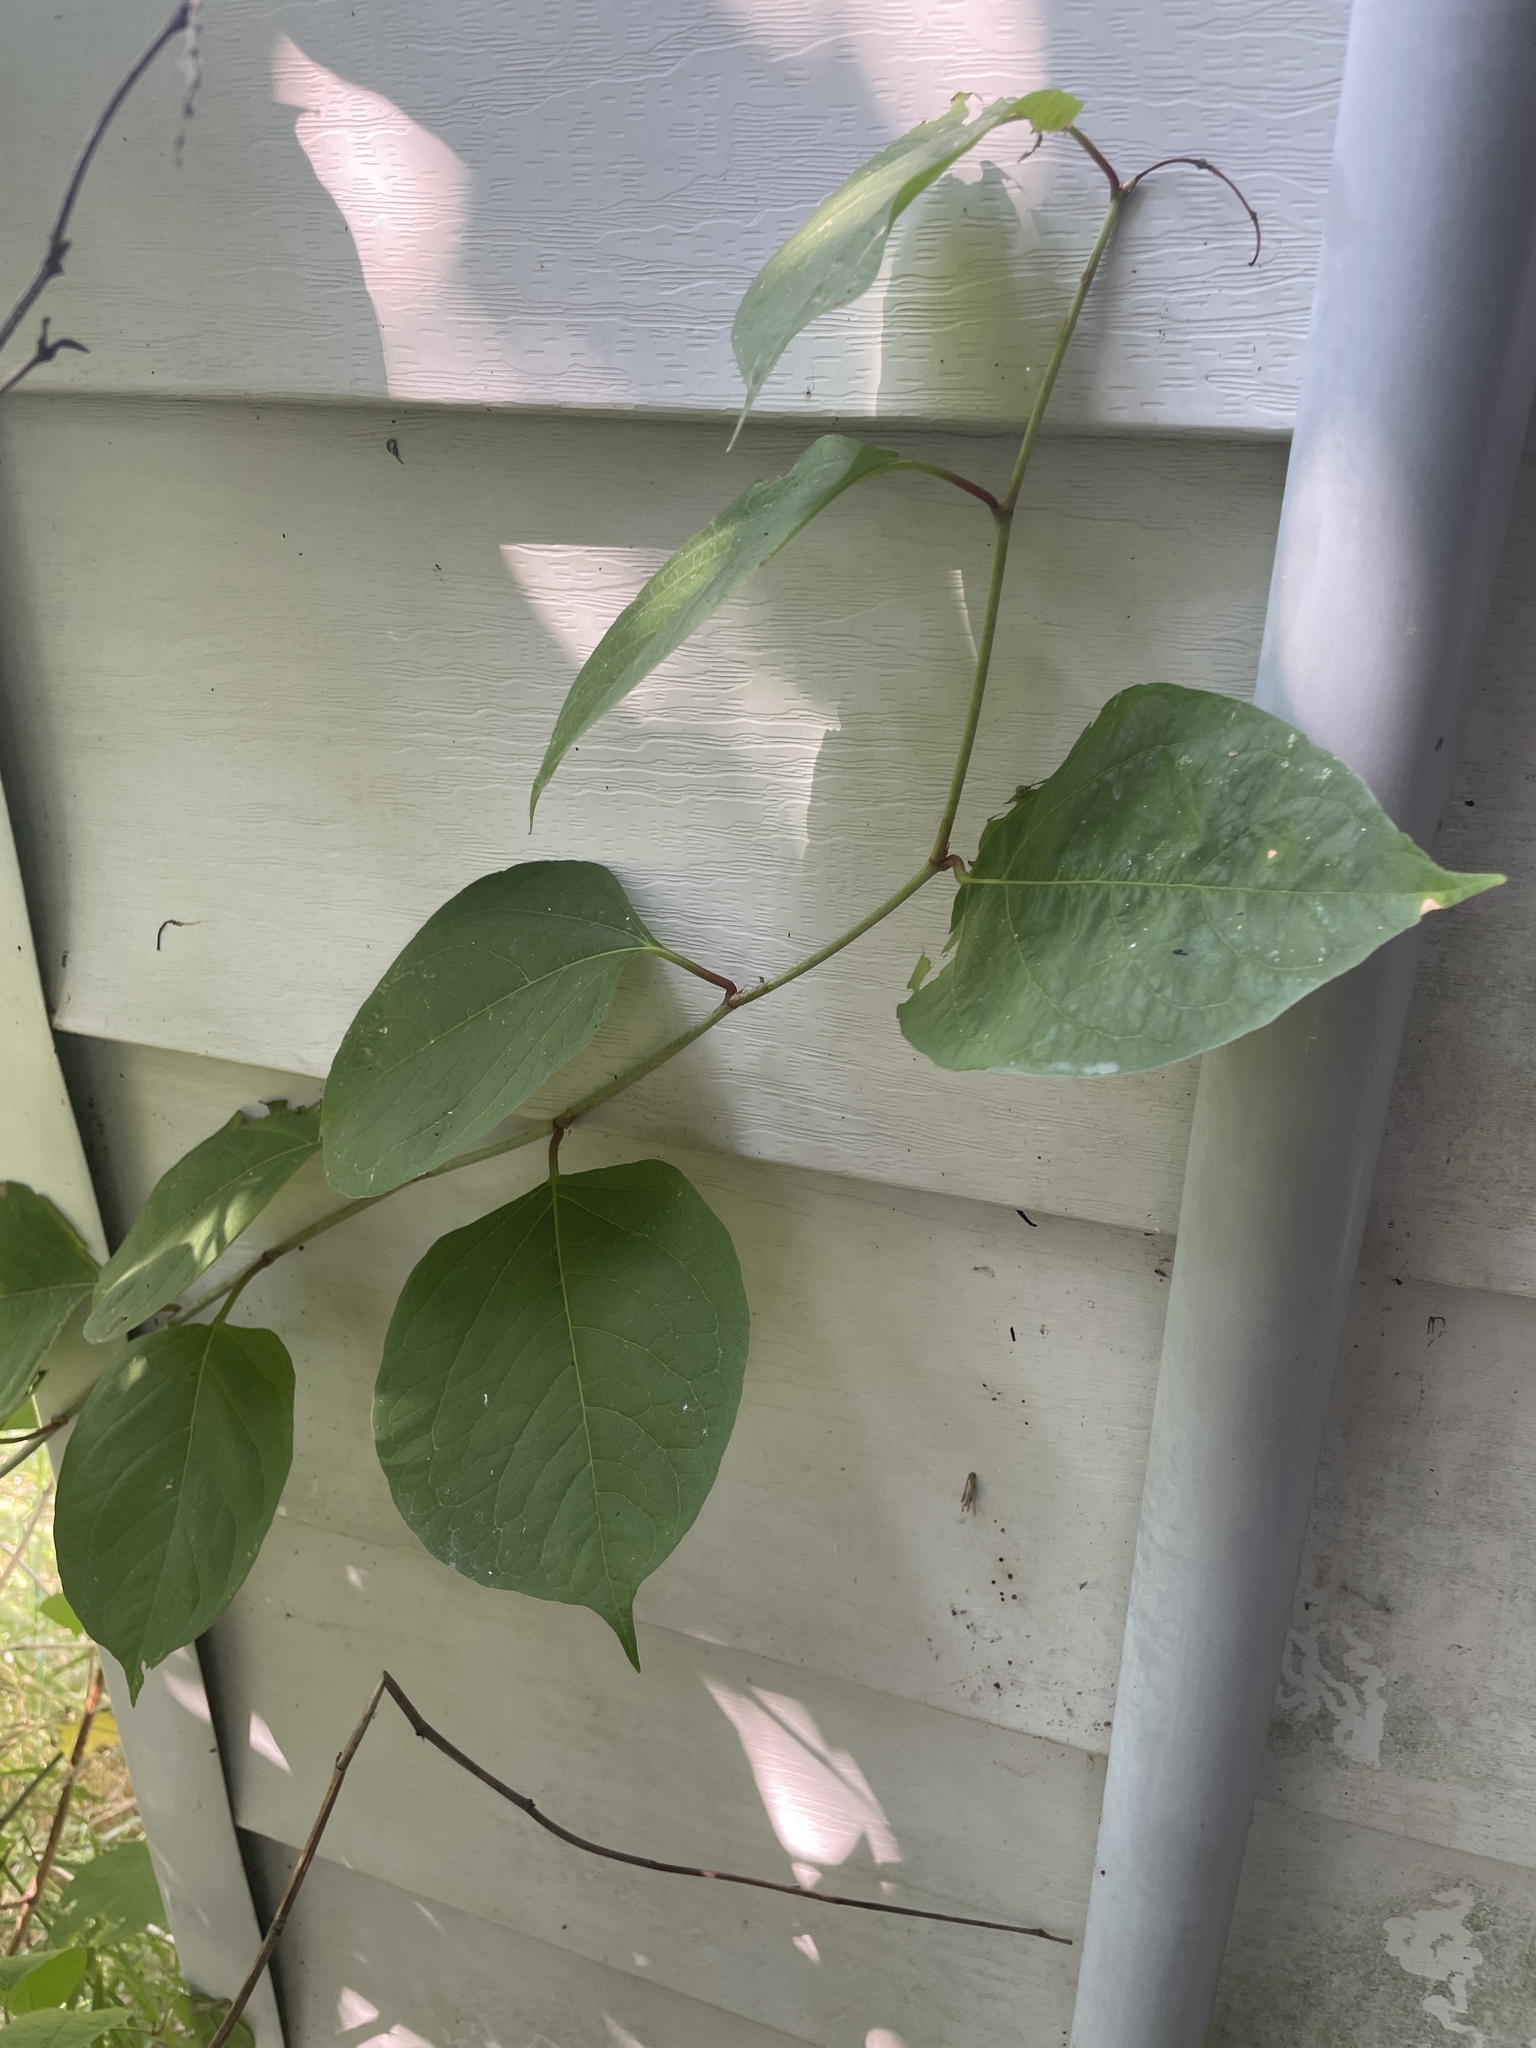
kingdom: Plantae
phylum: Tracheophyta
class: Magnoliopsida
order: Caryophyllales
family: Polygonaceae
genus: Reynoutria
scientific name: Reynoutria japonica
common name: Japanese knotweed
